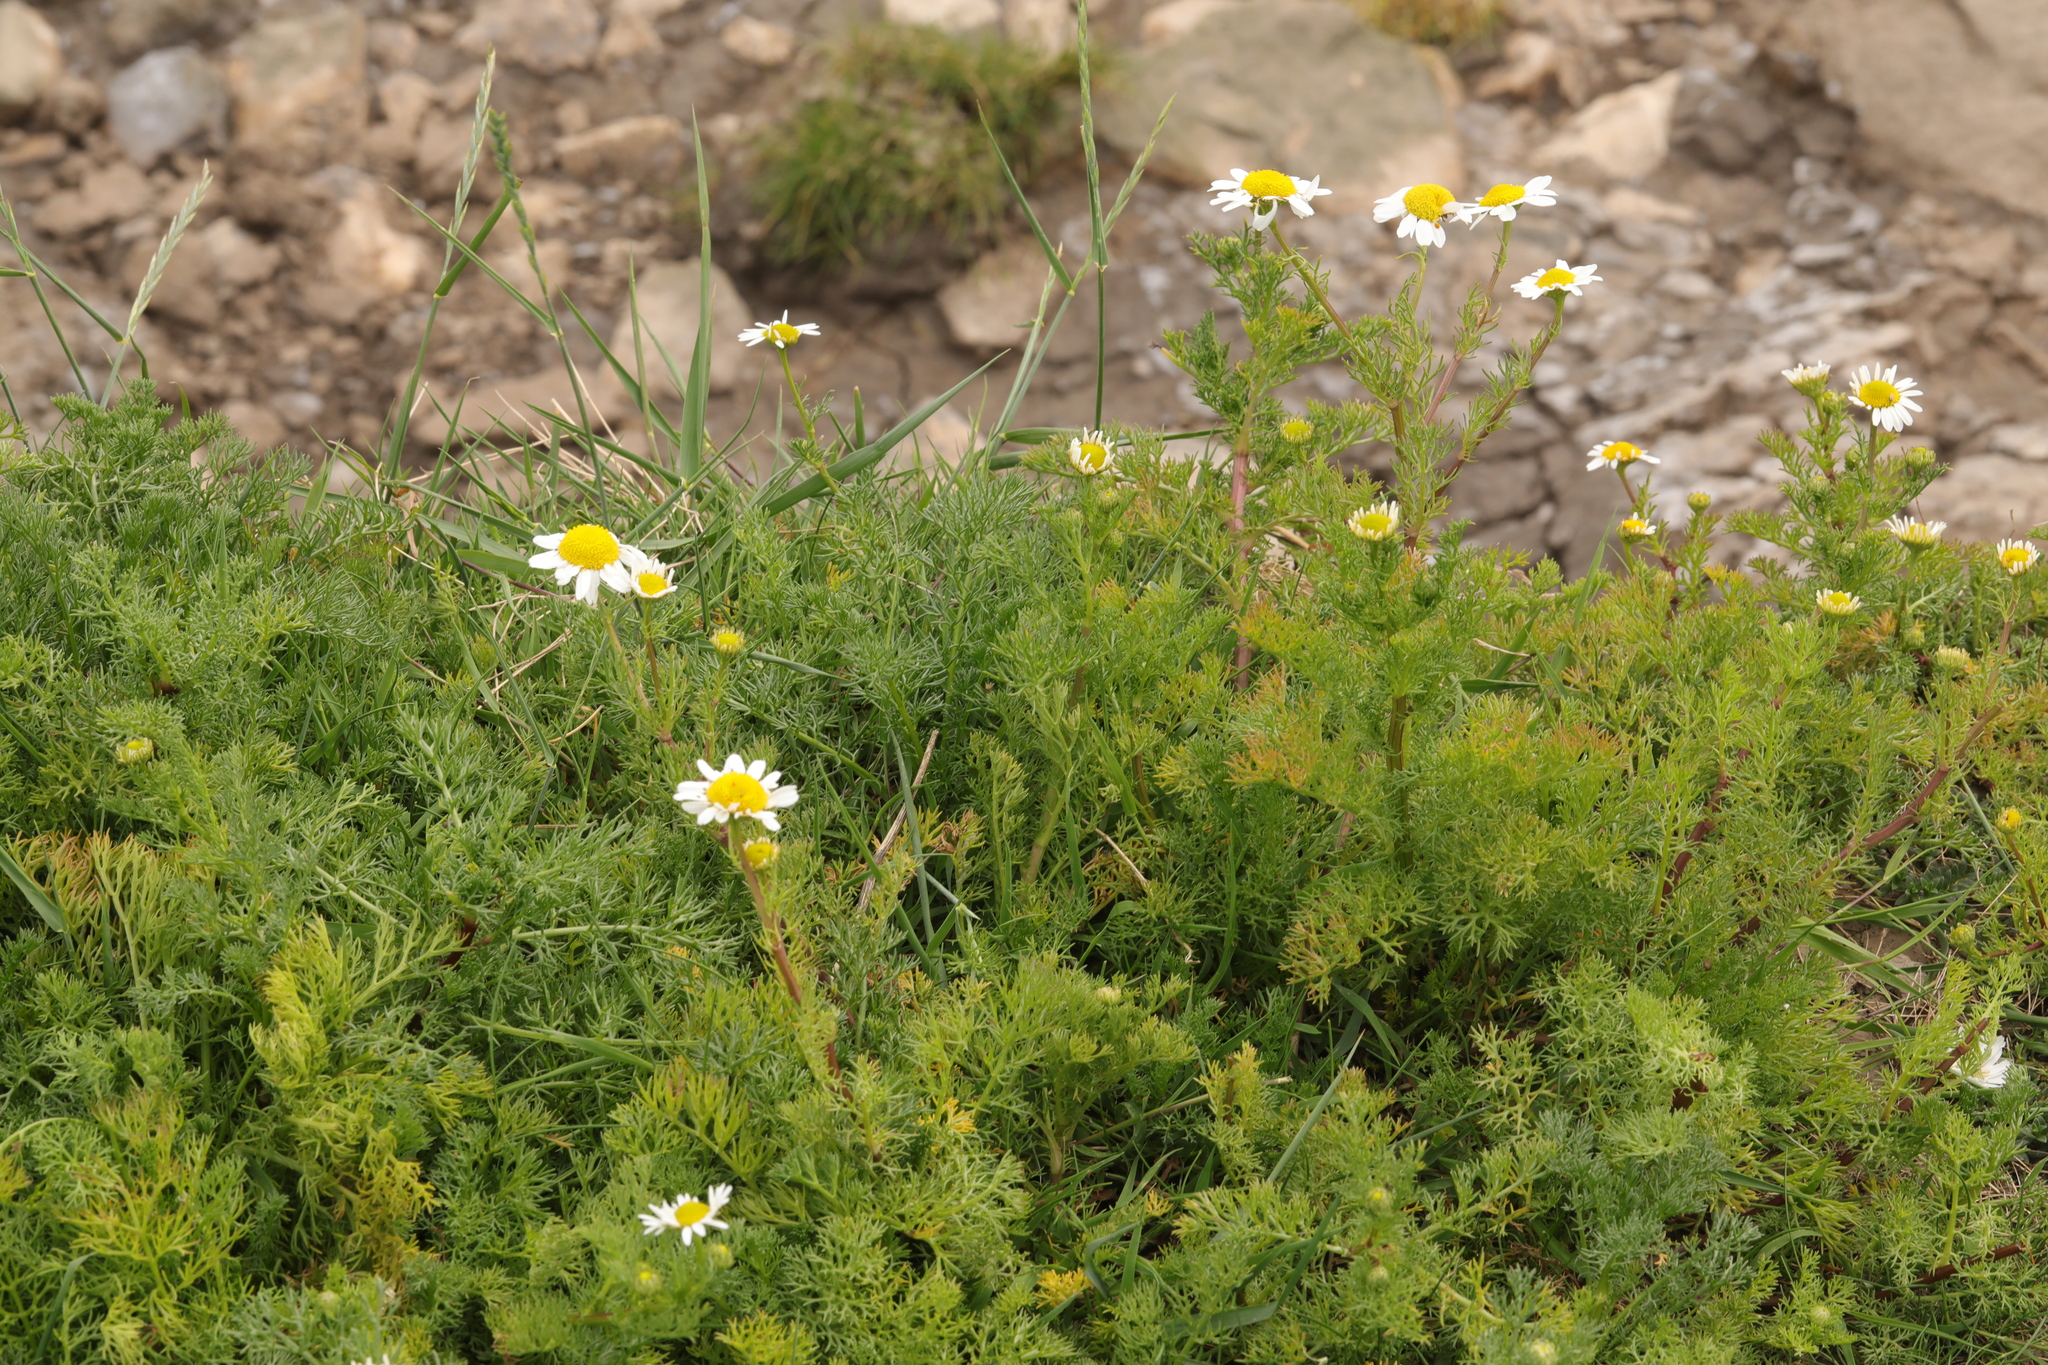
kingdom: Plantae
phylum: Tracheophyta
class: Magnoliopsida
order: Asterales
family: Asteraceae
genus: Tripleurospermum
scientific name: Tripleurospermum maritimum
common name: Sea mayweed
